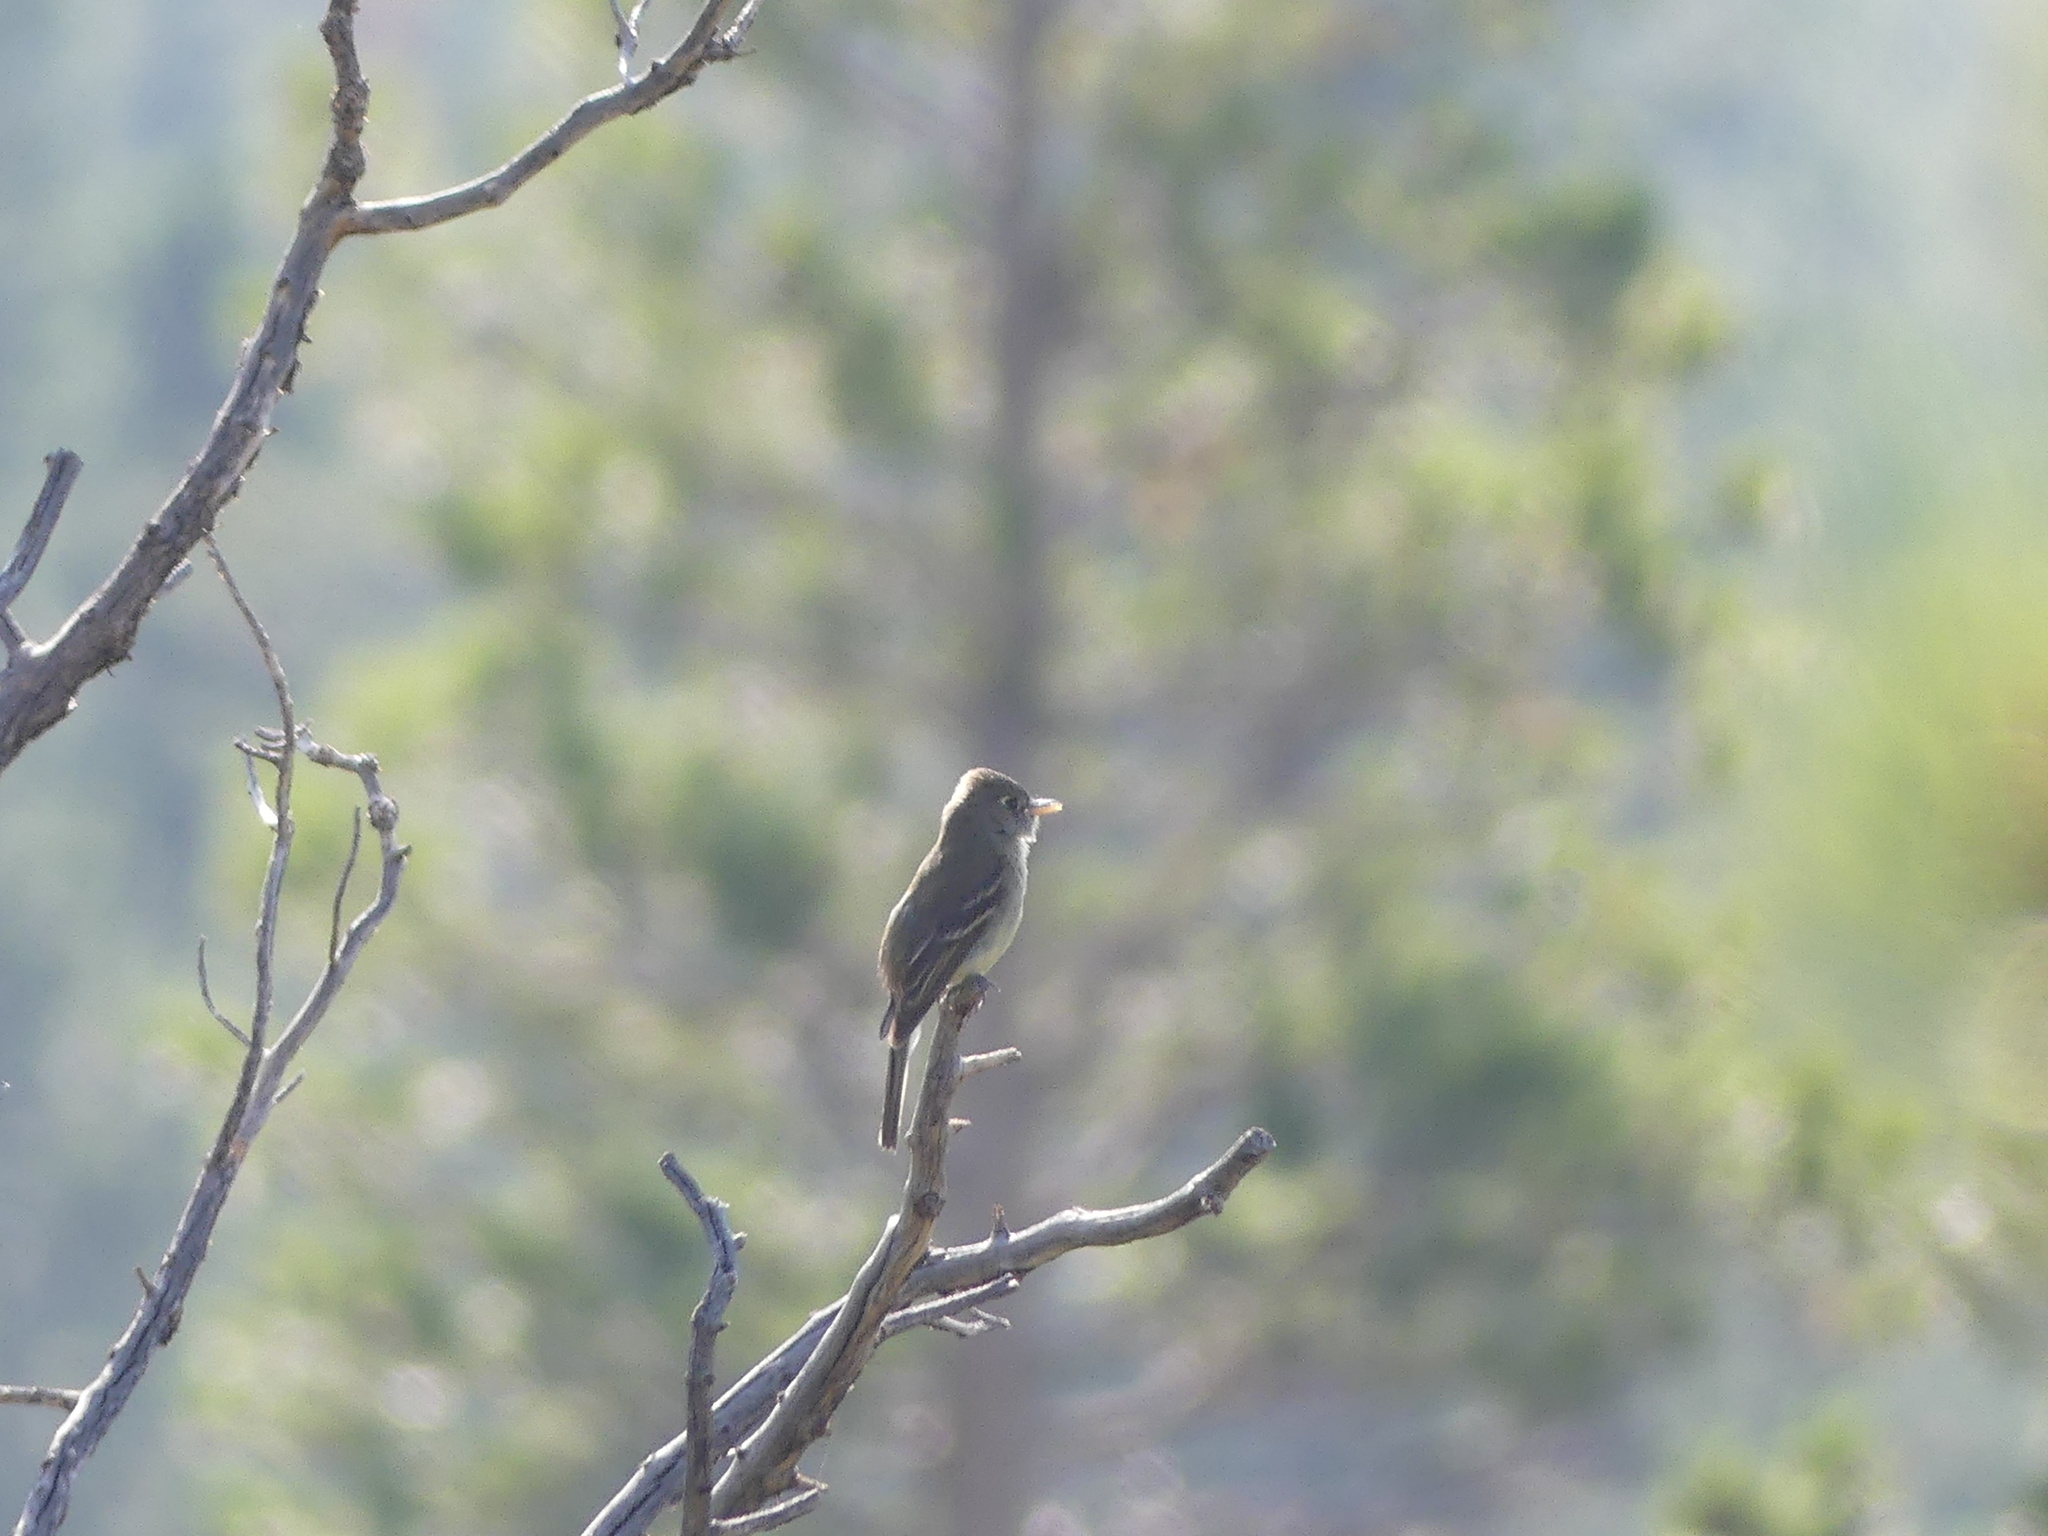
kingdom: Animalia
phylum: Chordata
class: Aves
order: Passeriformes
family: Tyrannidae
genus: Empidonax
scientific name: Empidonax difficilis
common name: Pacific-slope flycatcher
